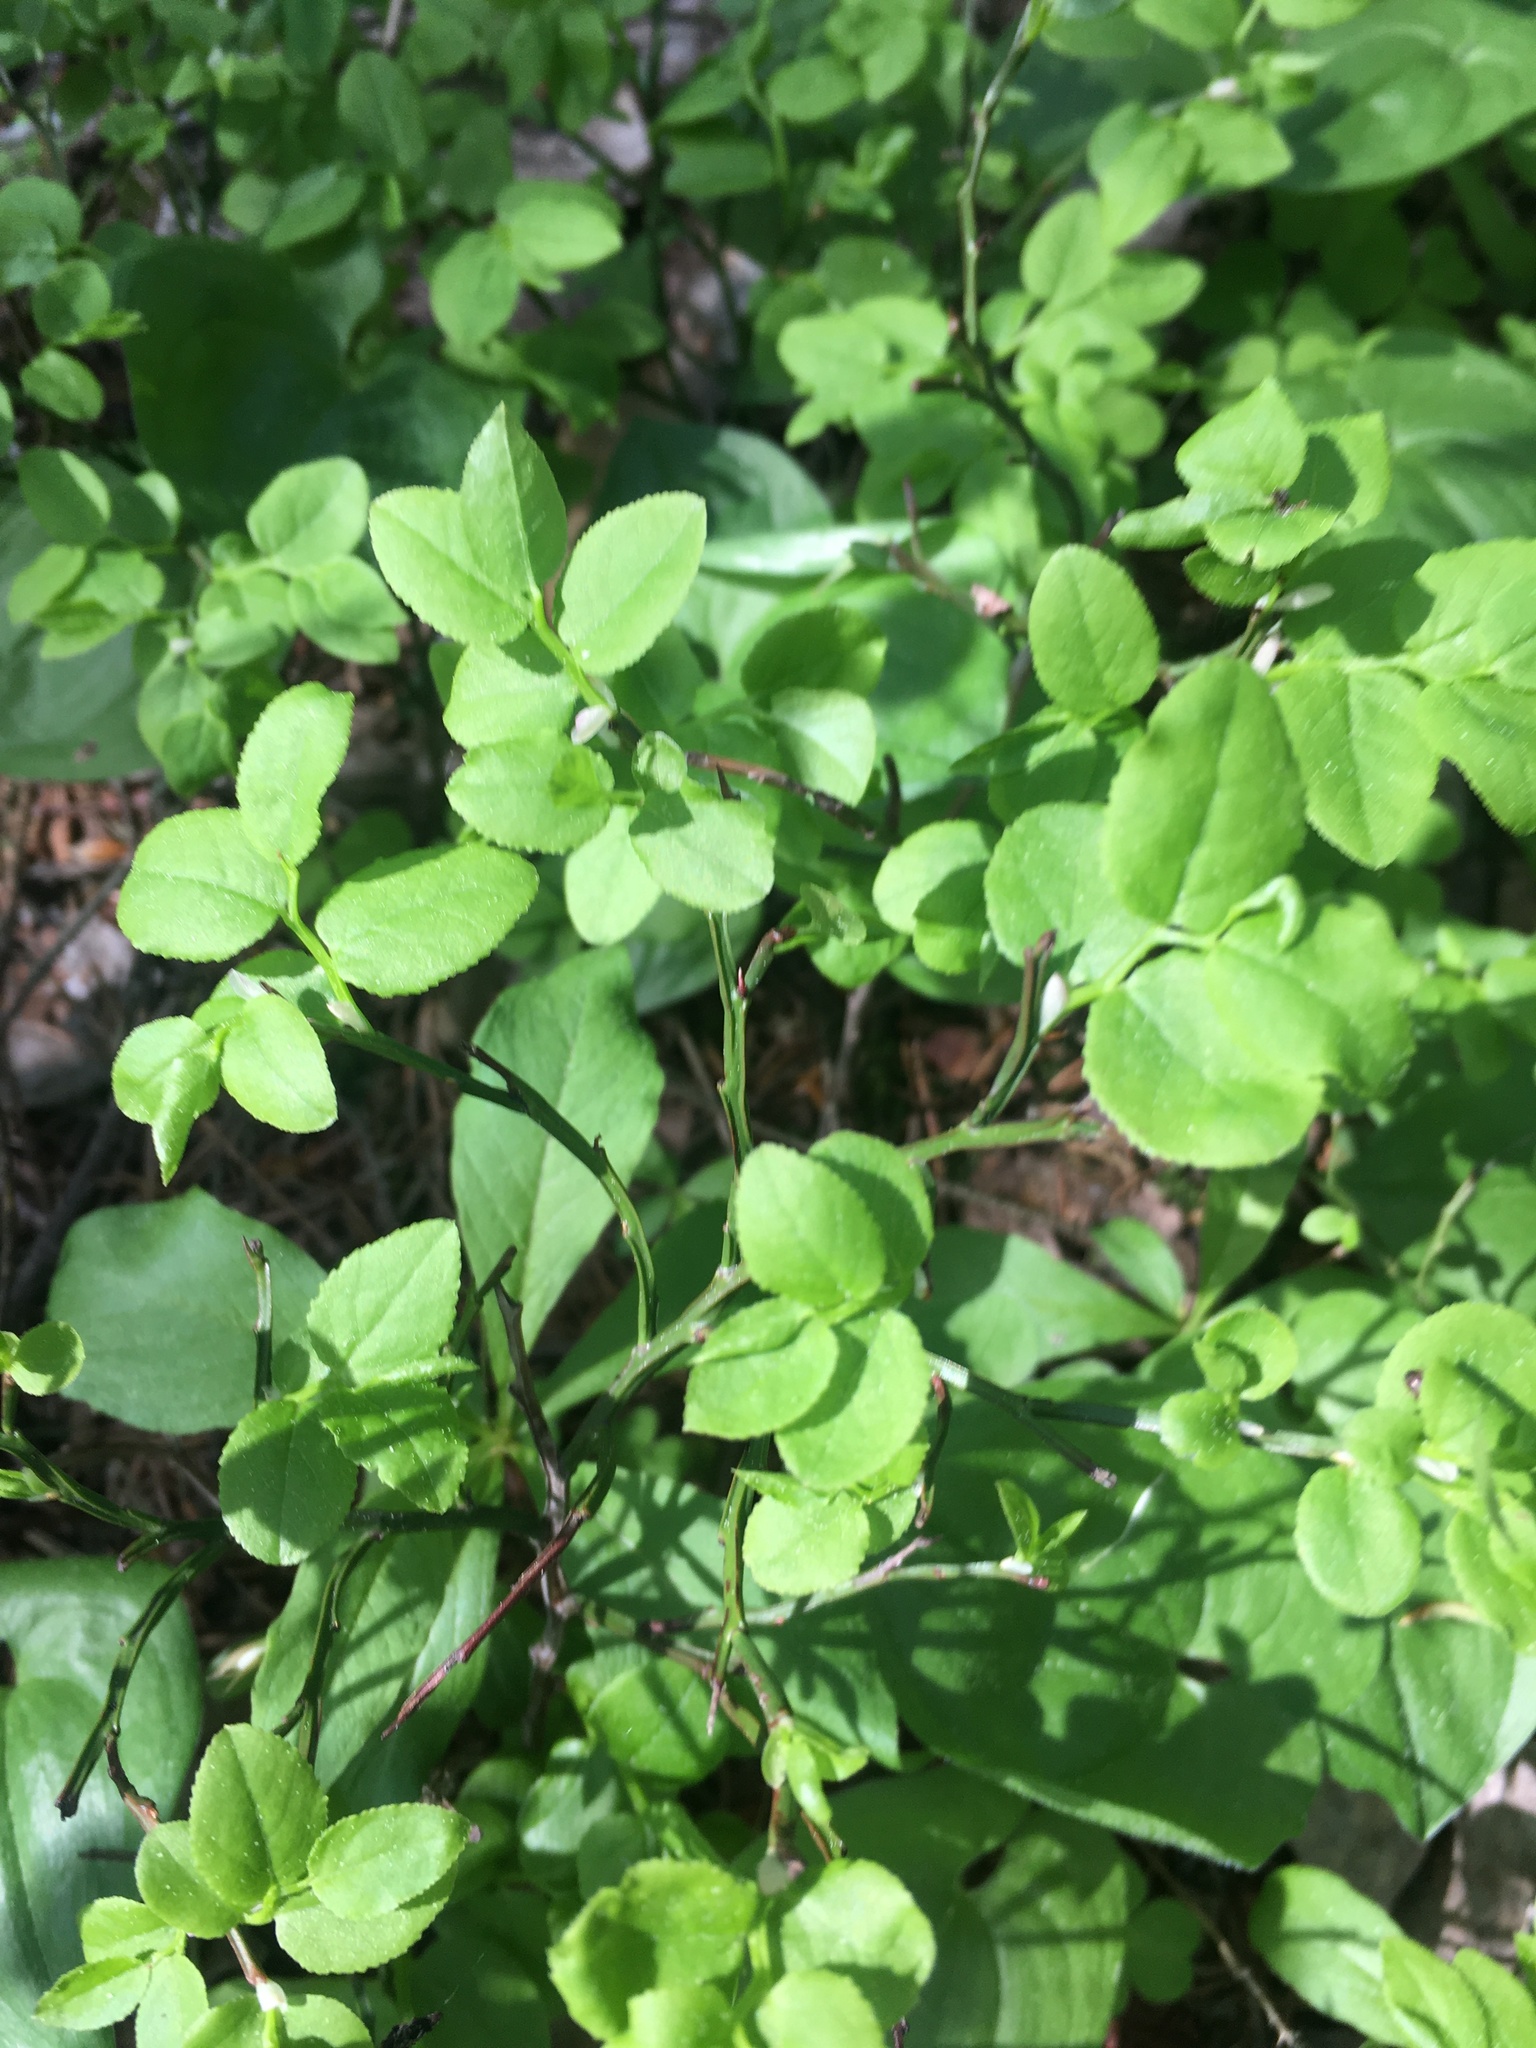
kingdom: Plantae
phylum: Tracheophyta
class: Magnoliopsida
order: Ericales
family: Ericaceae
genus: Vaccinium
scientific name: Vaccinium myrtillus
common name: Bilberry
